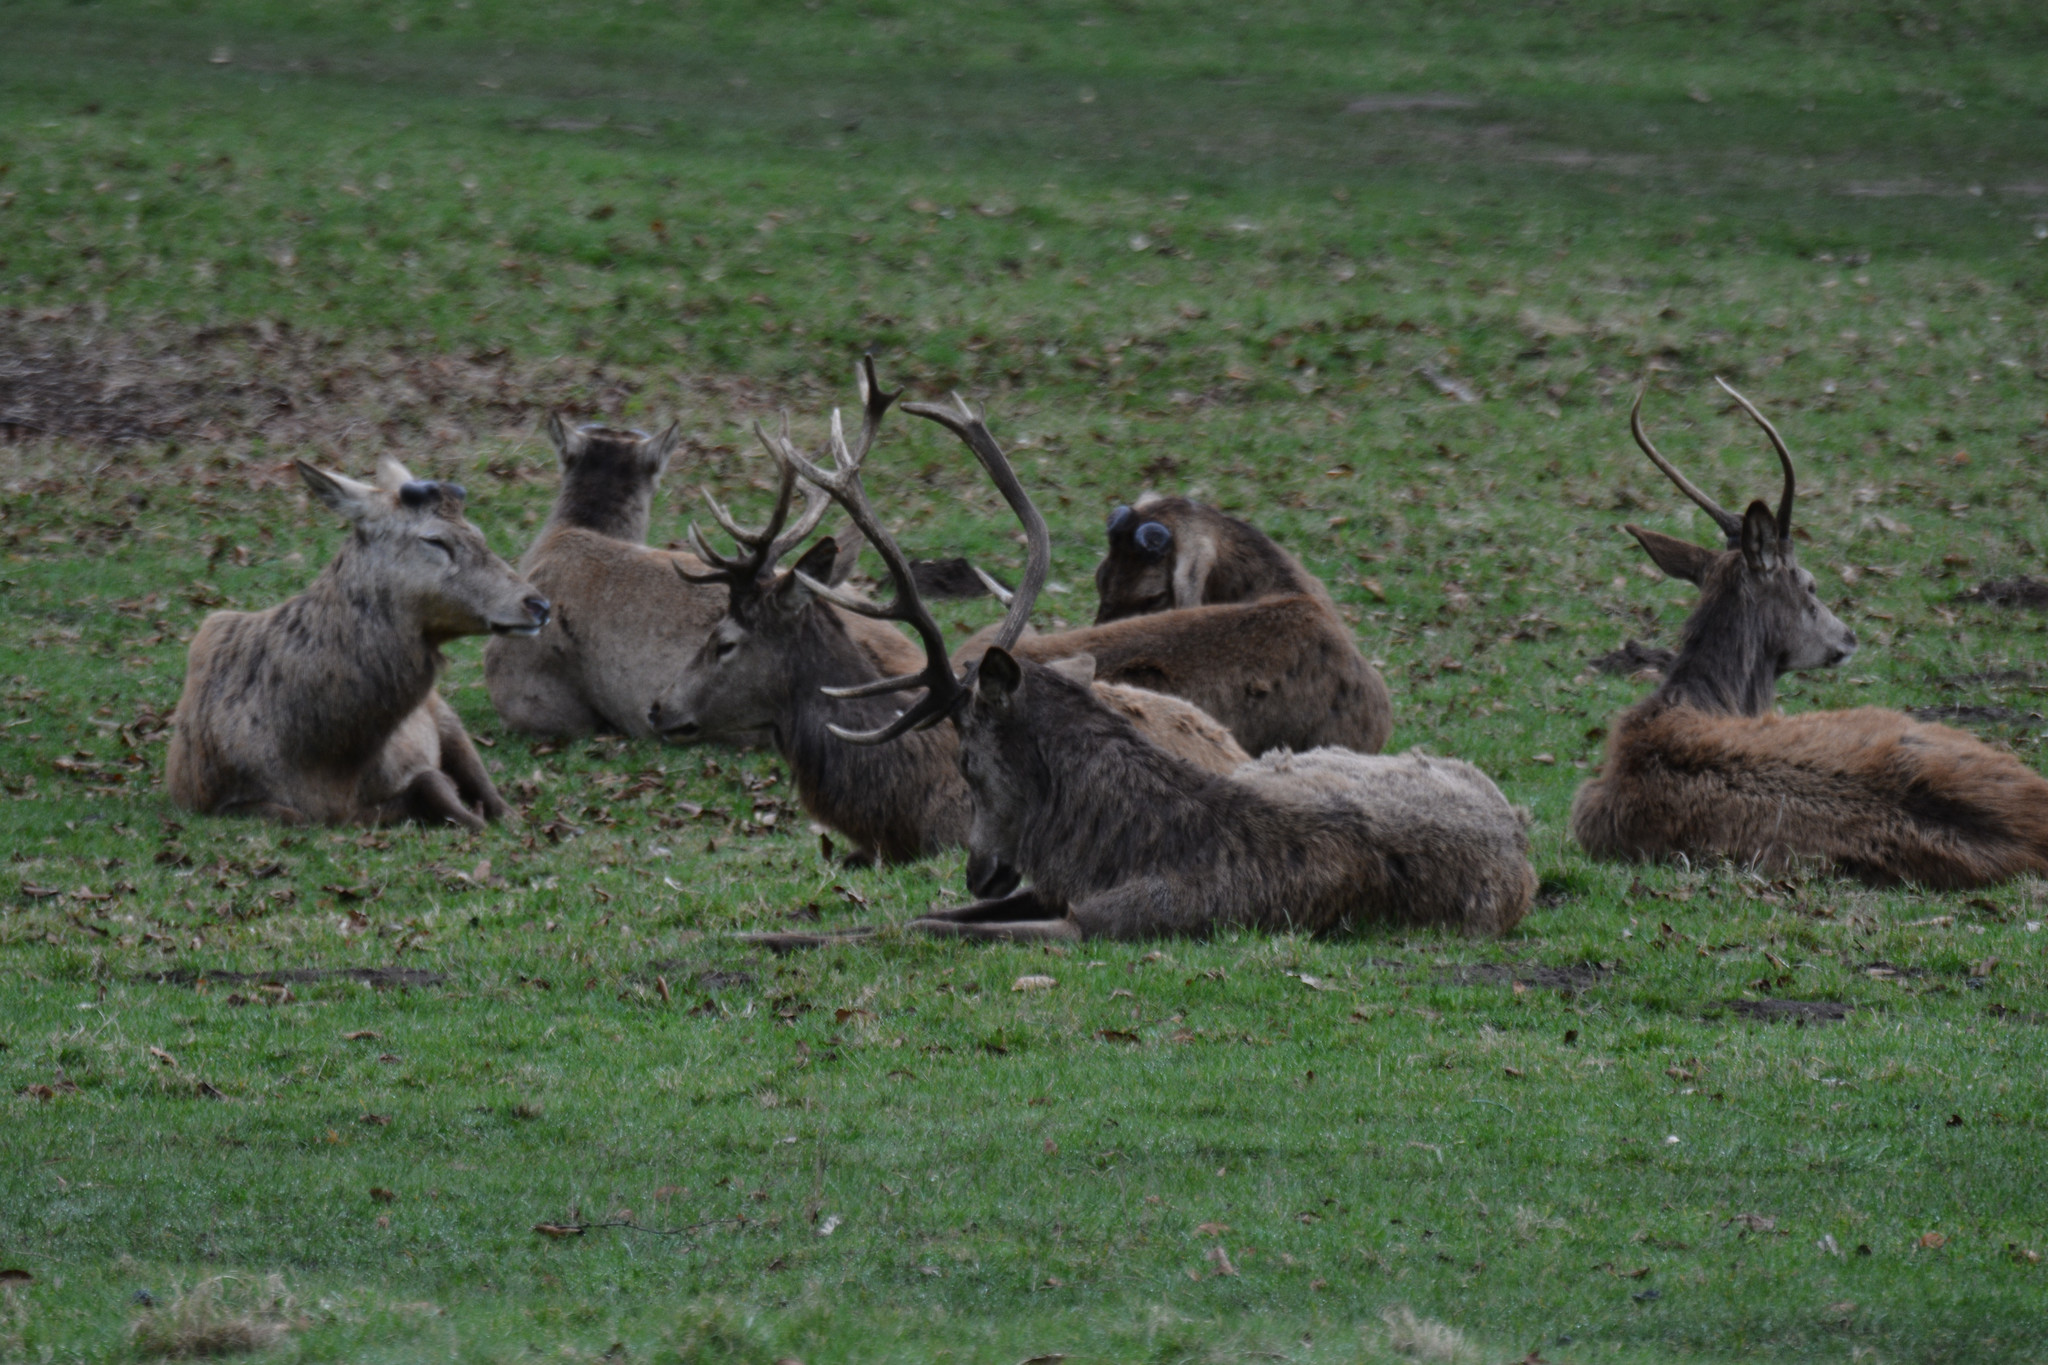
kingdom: Animalia
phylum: Chordata
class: Mammalia
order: Artiodactyla
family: Cervidae
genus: Cervus
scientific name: Cervus elaphus
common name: Red deer
